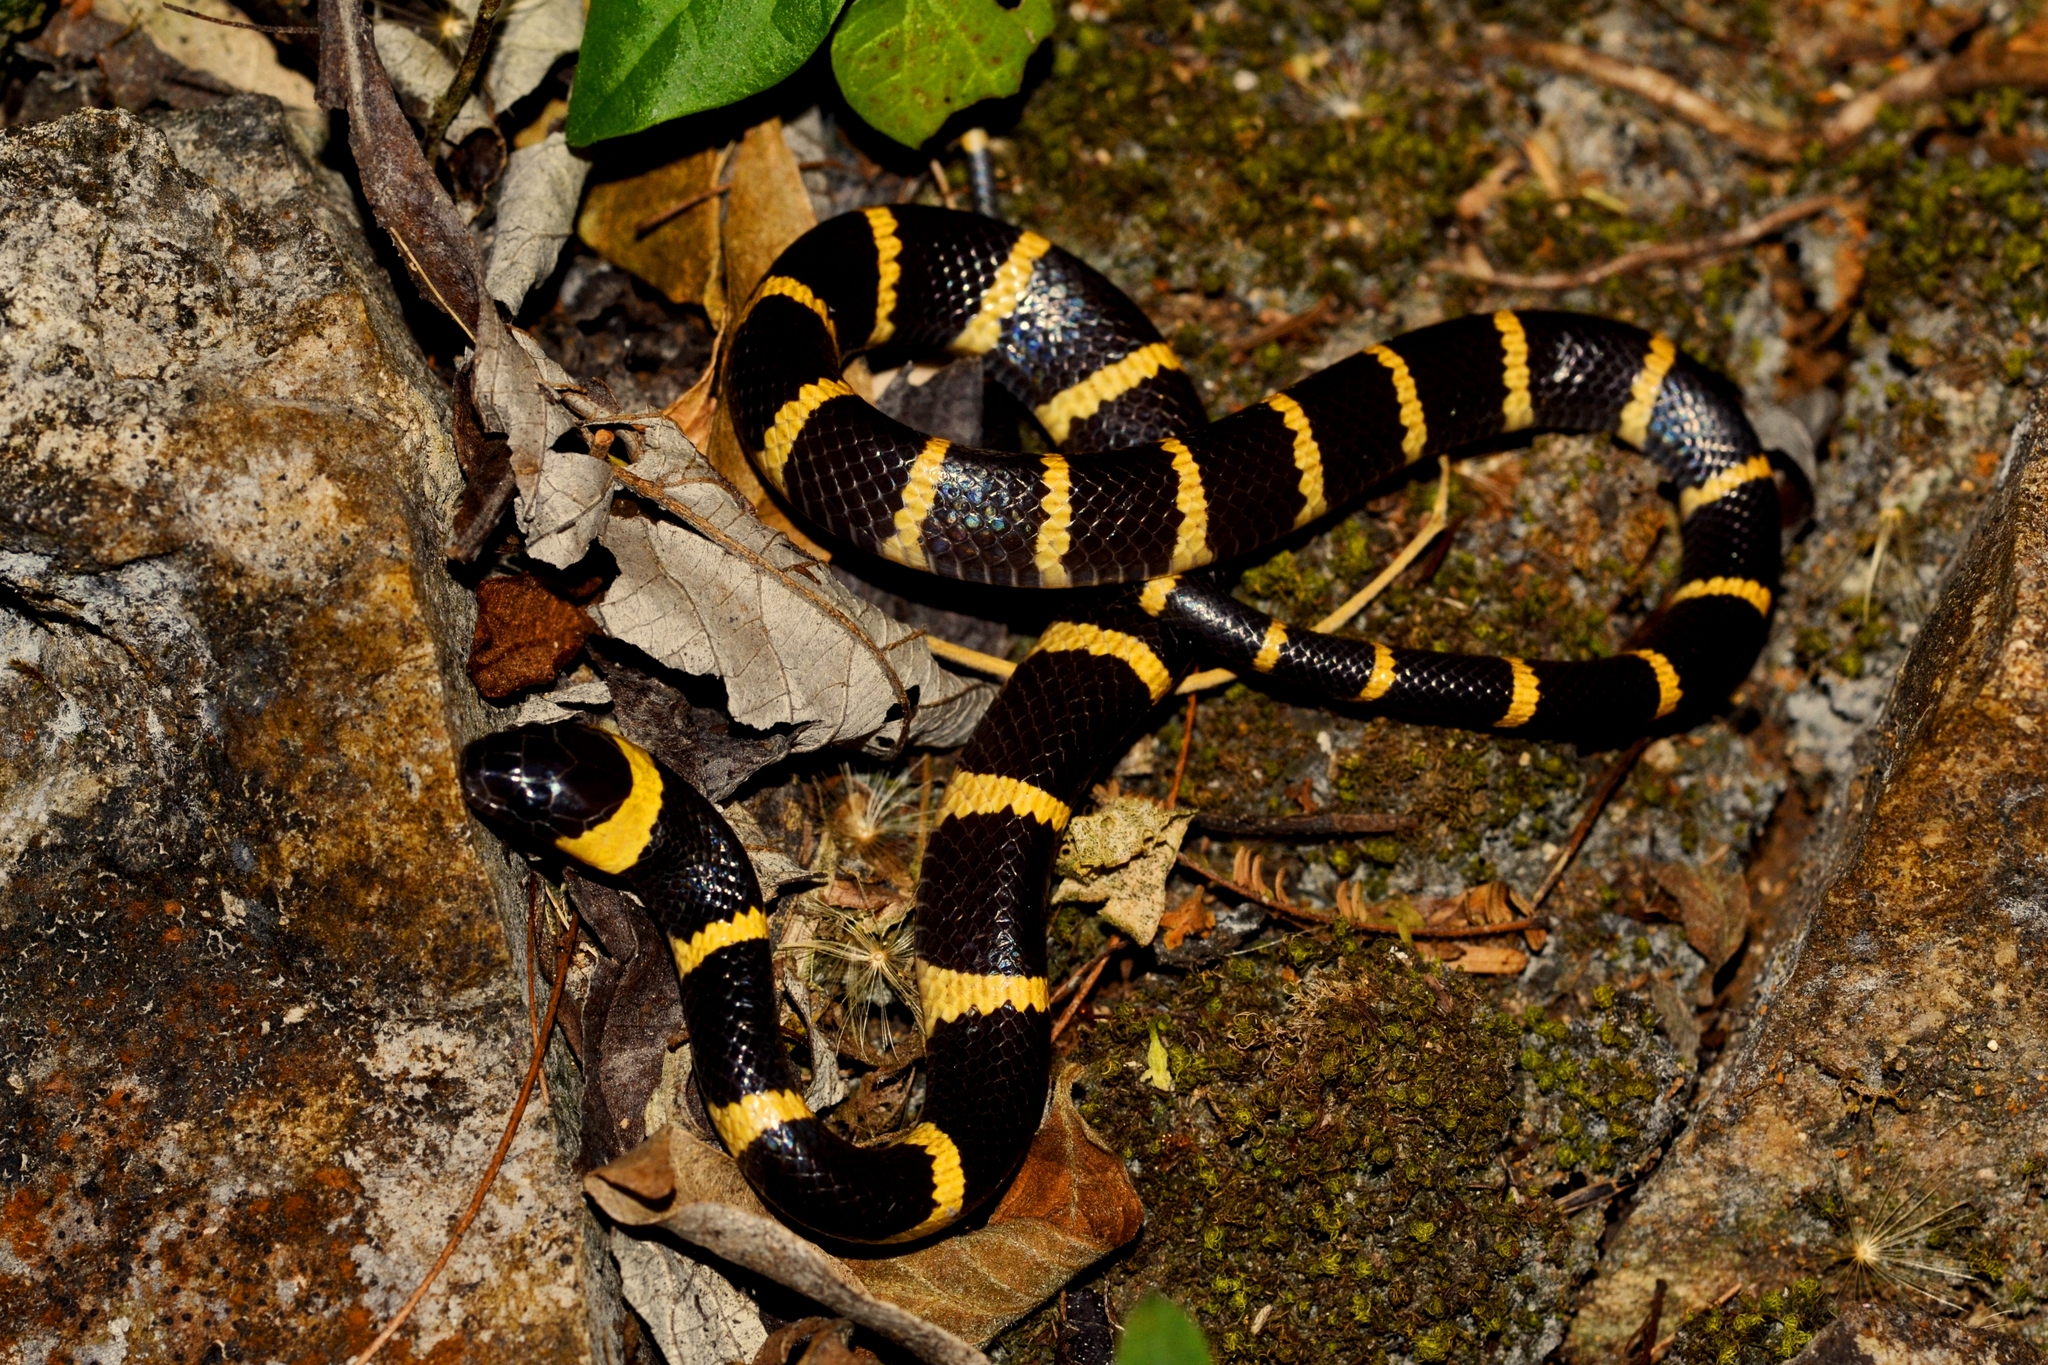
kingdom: Animalia
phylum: Chordata
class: Squamata
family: Colubridae
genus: Geophis
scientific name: Geophis
